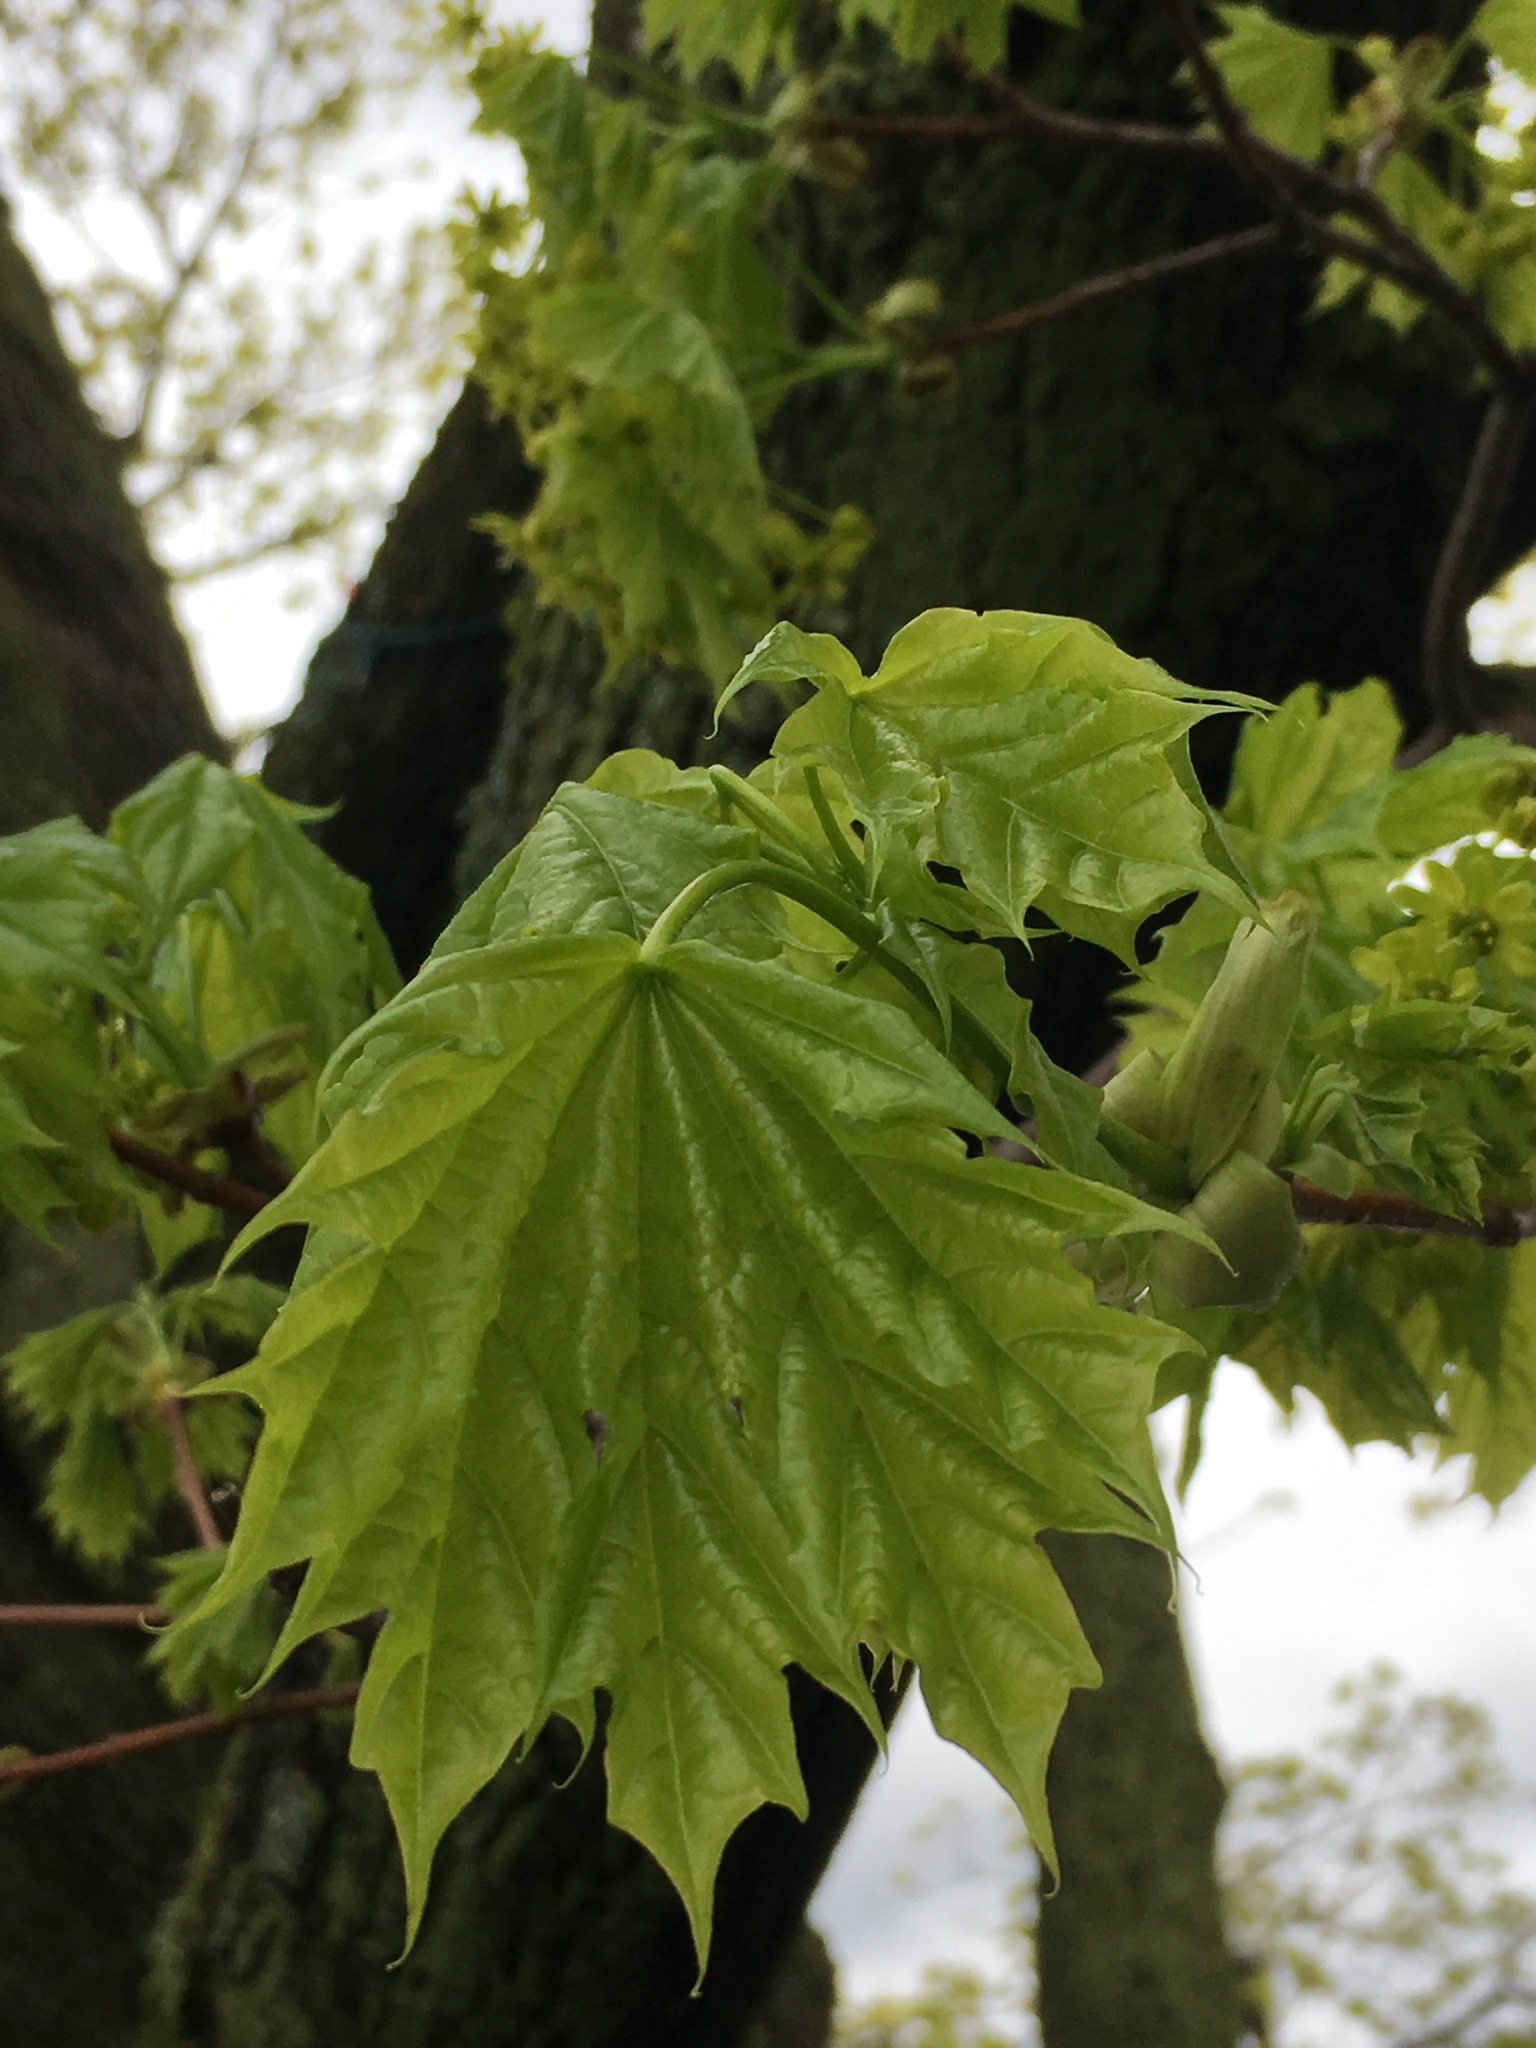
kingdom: Plantae
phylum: Tracheophyta
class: Magnoliopsida
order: Sapindales
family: Sapindaceae
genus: Acer
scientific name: Acer platanoides
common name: Norway maple
